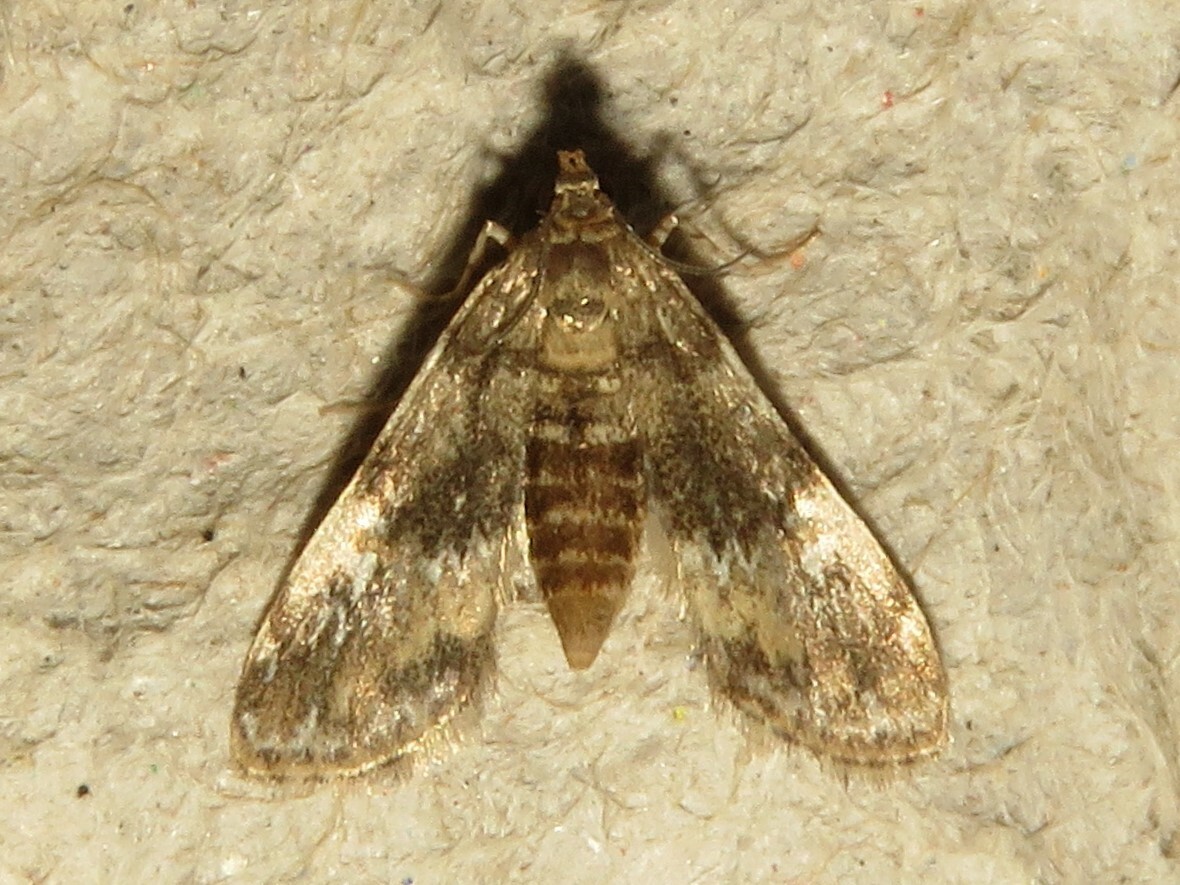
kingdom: Animalia
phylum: Arthropoda
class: Insecta
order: Lepidoptera
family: Crambidae
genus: Elophila
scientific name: Elophila obliteralis
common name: Waterlily leafcutter moth
